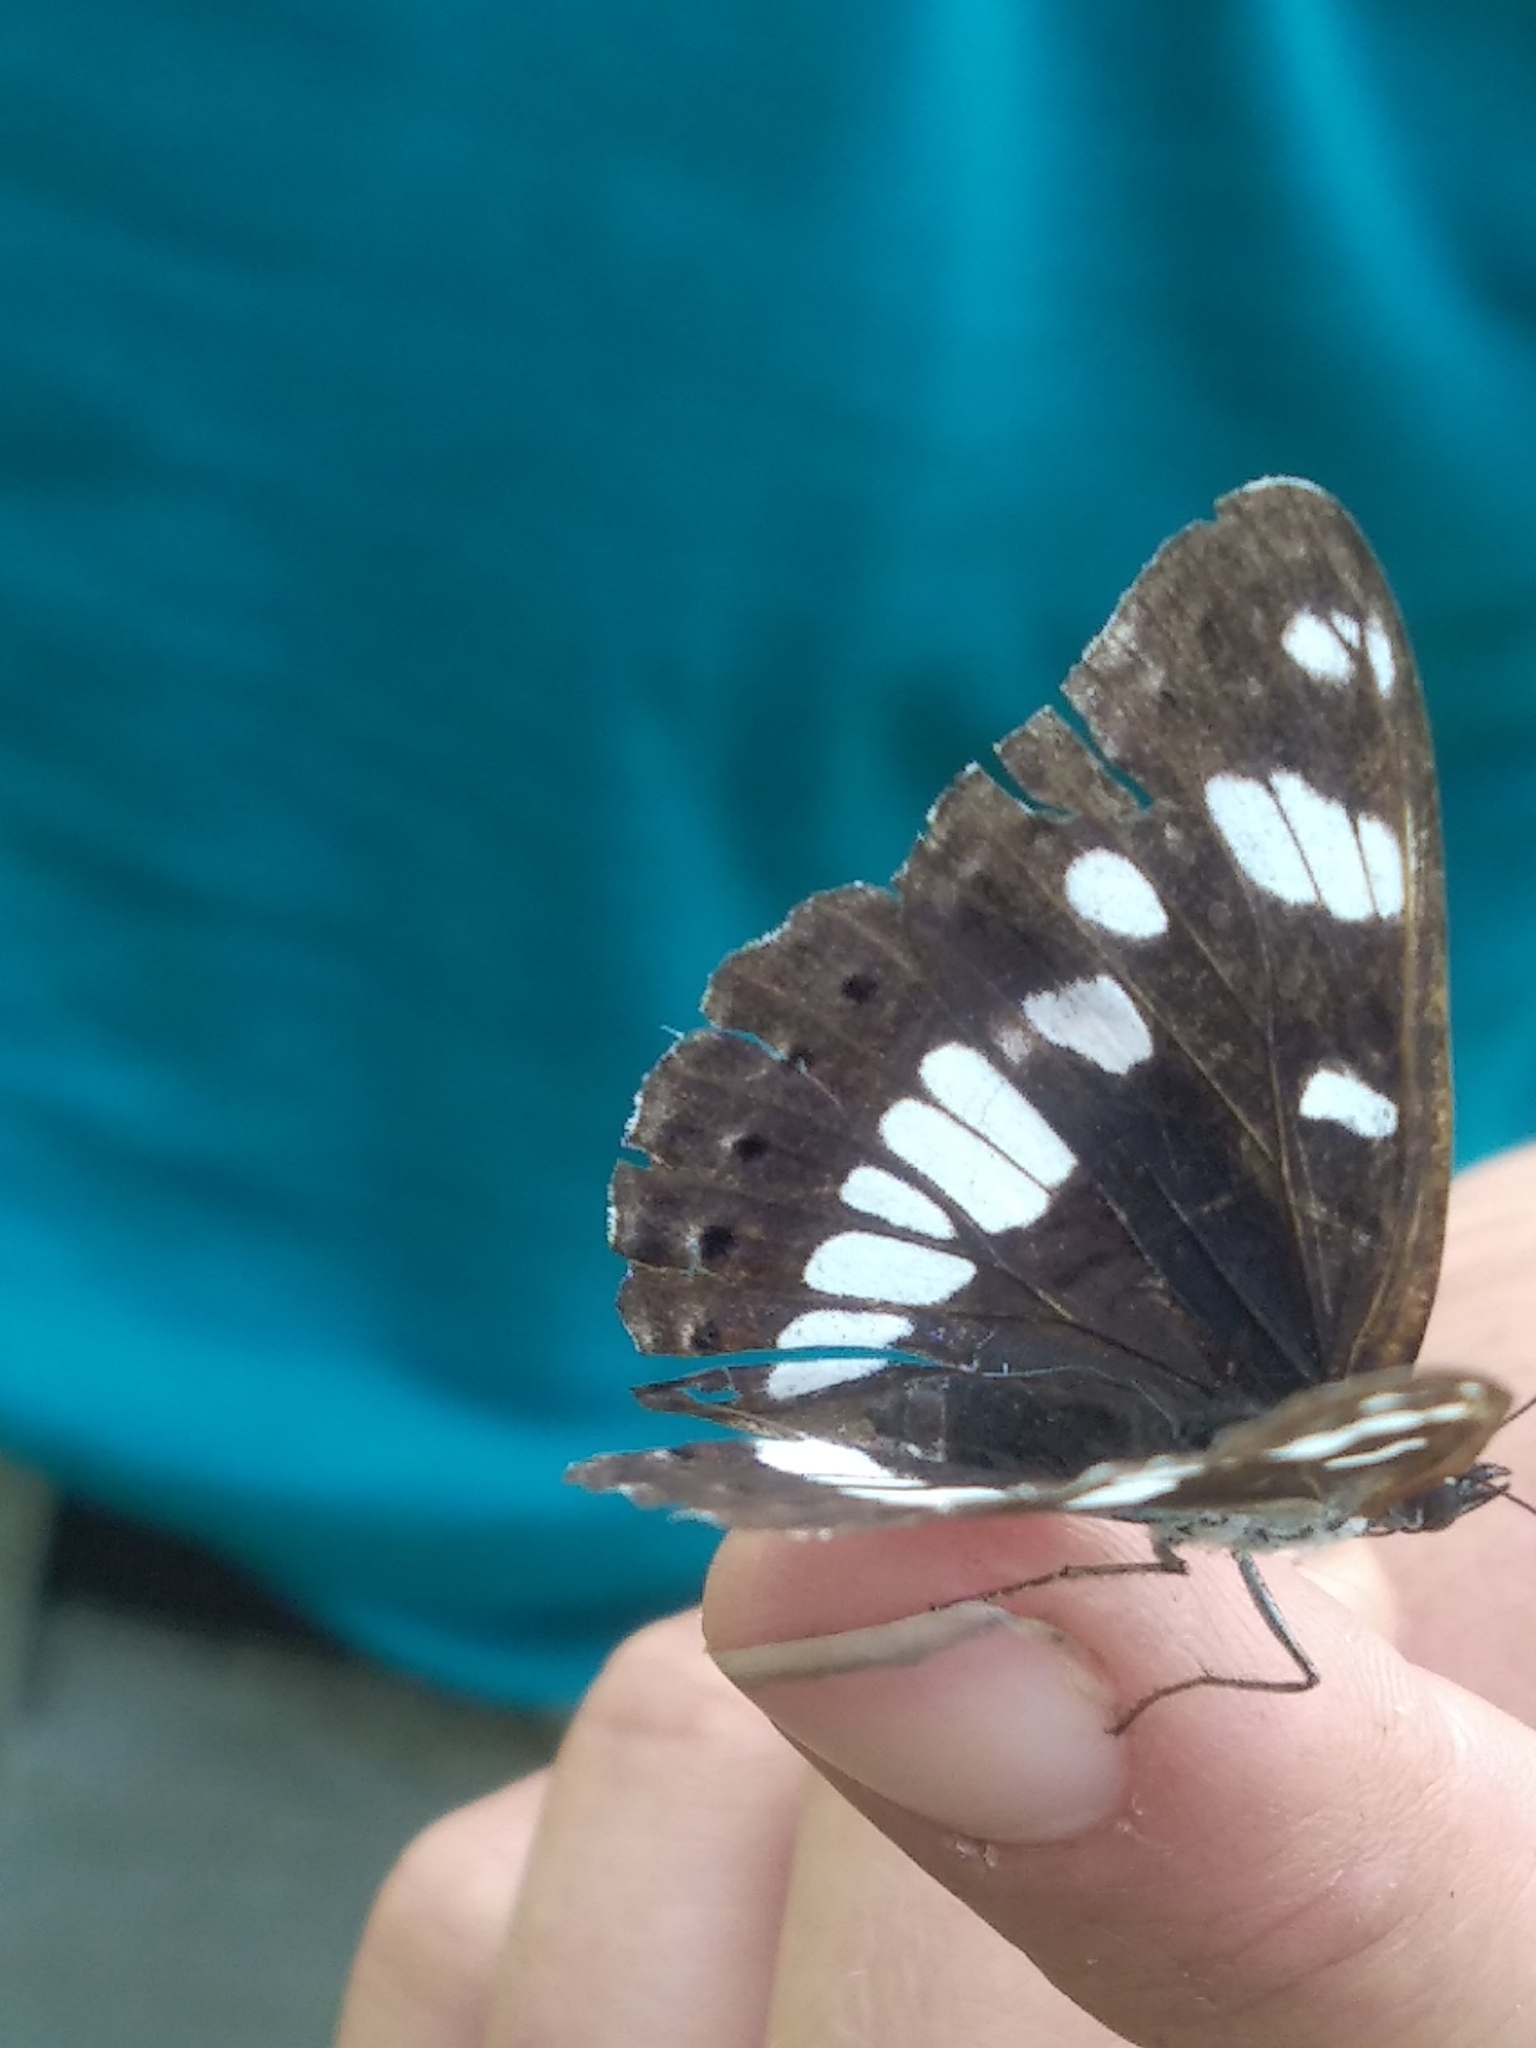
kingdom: Animalia
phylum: Arthropoda
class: Insecta
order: Lepidoptera
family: Nymphalidae
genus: Limenitis
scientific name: Limenitis reducta
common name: Southern white admiral
